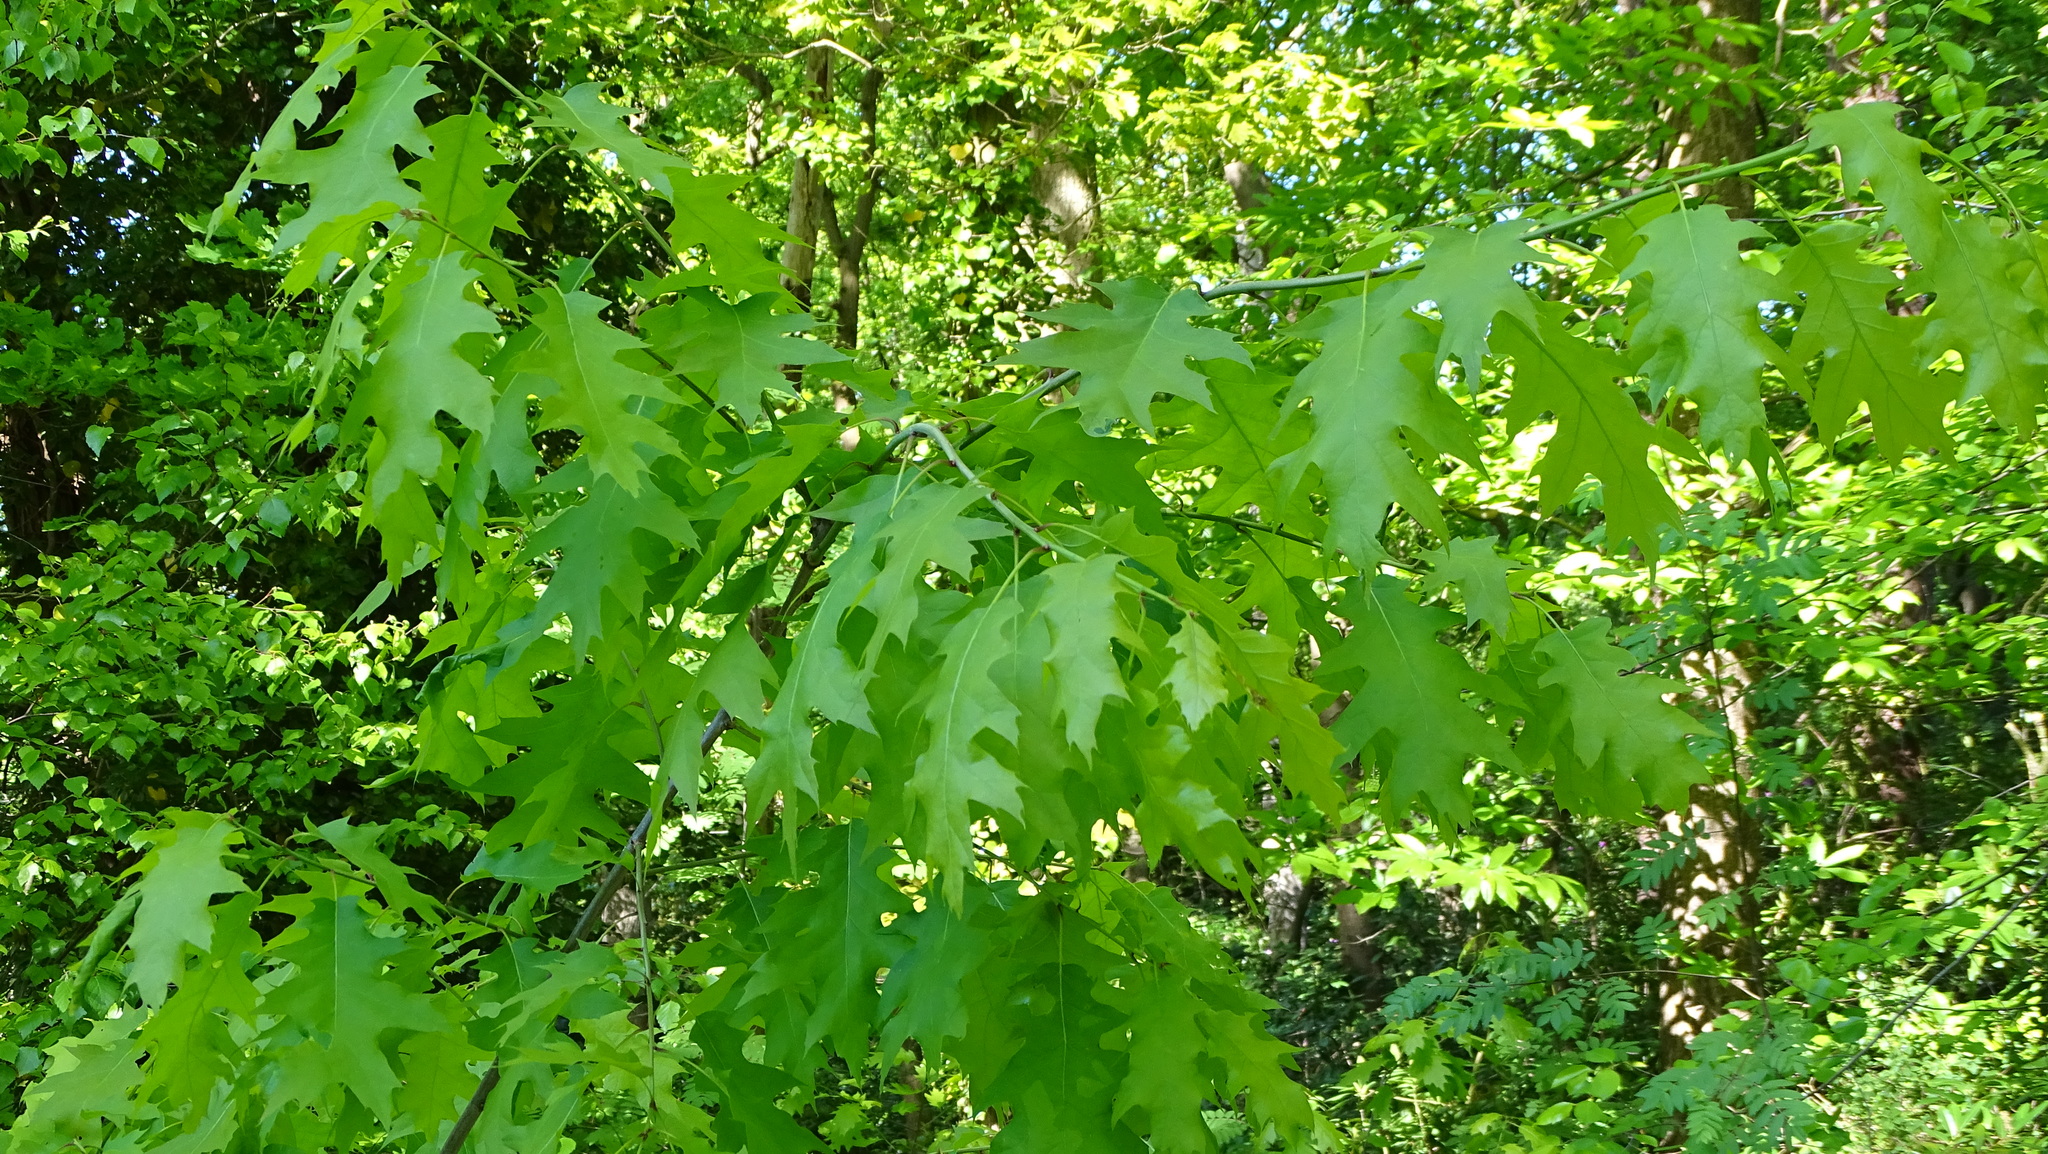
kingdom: Plantae
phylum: Tracheophyta
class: Magnoliopsida
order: Fagales
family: Fagaceae
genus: Quercus
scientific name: Quercus rubra
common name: Red oak
